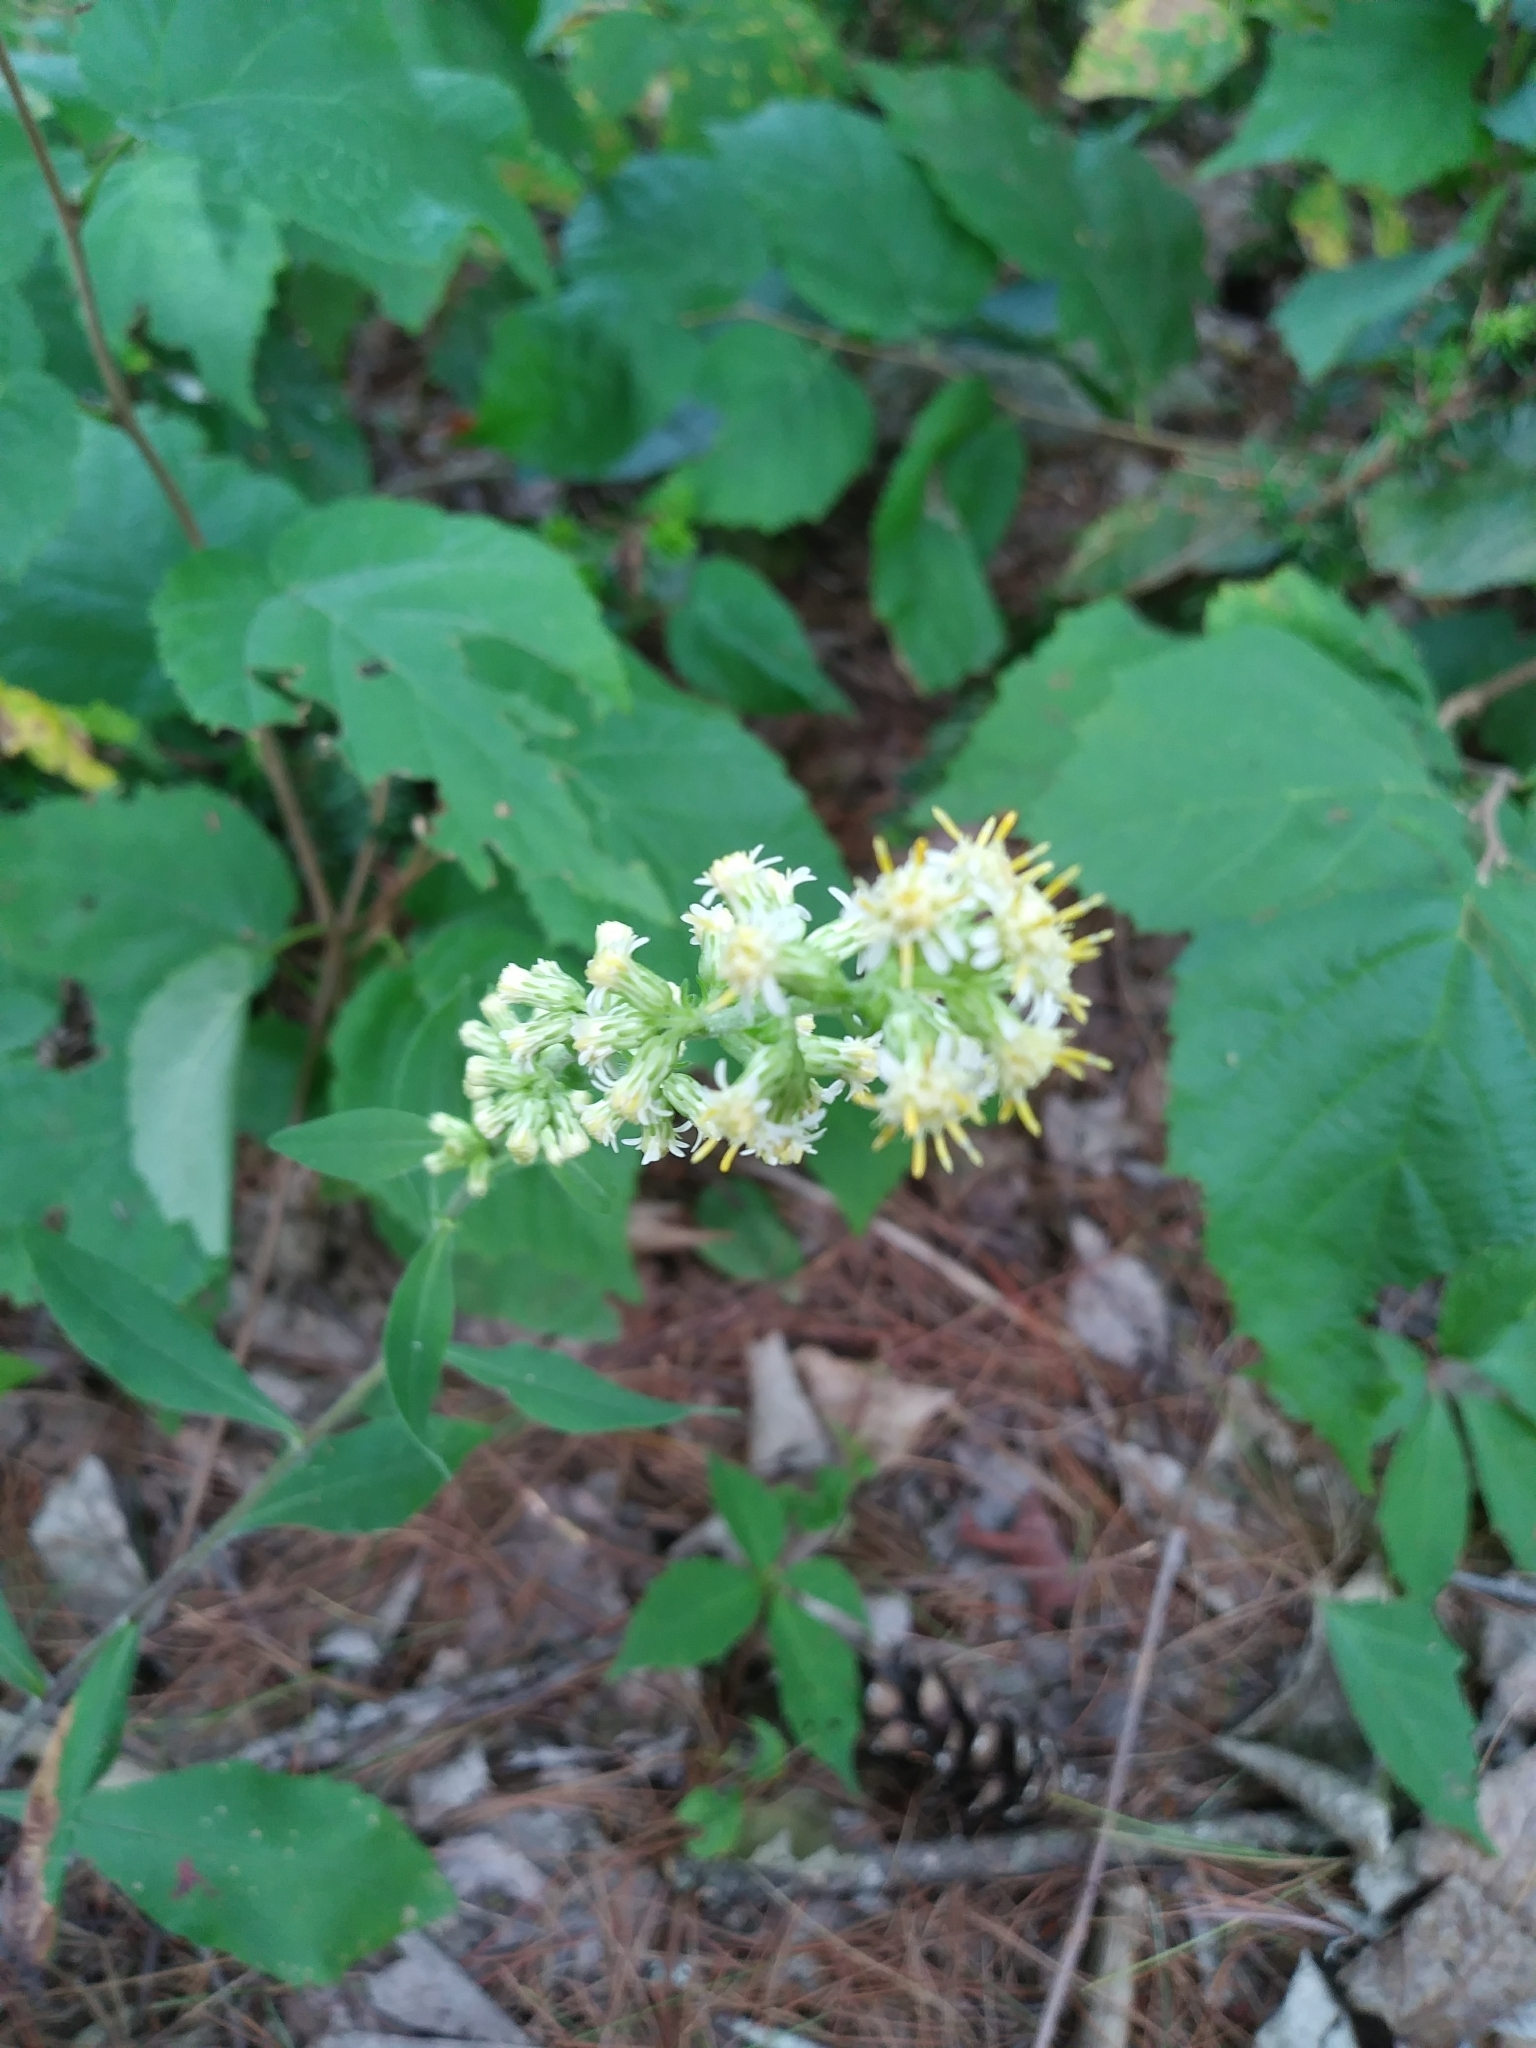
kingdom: Plantae
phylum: Tracheophyta
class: Magnoliopsida
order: Asterales
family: Asteraceae
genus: Solidago
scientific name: Solidago bicolor
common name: Silverrod
